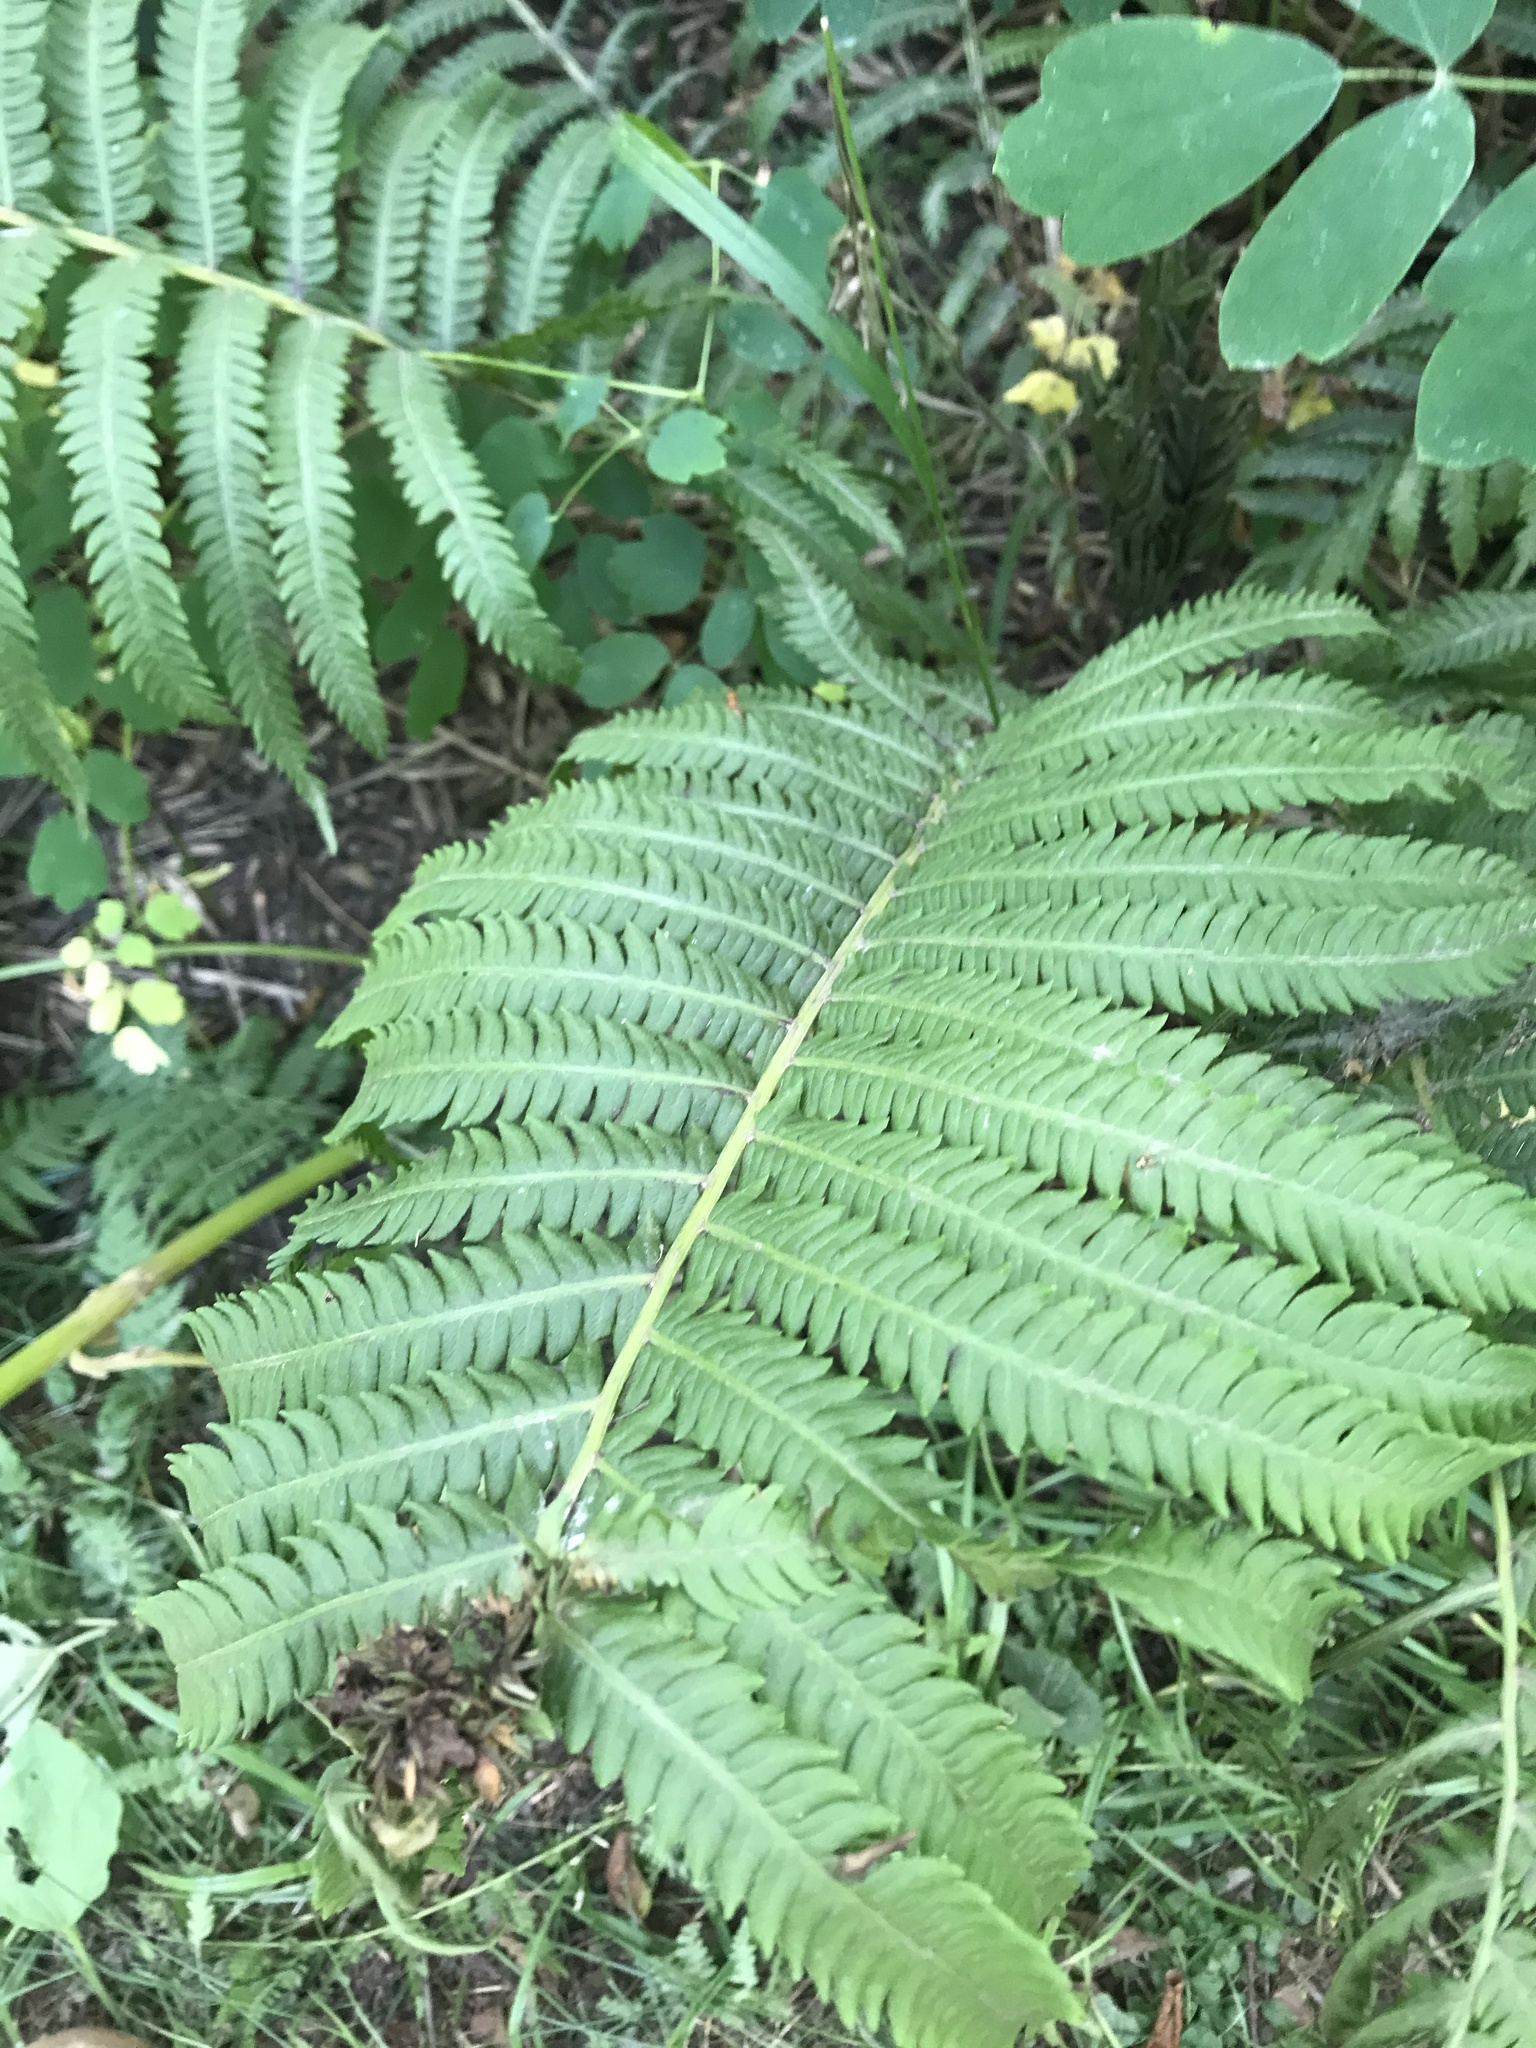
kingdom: Plantae
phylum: Tracheophyta
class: Polypodiopsida
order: Polypodiales
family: Onocleaceae
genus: Matteuccia
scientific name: Matteuccia struthiopteris
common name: Ostrich fern
